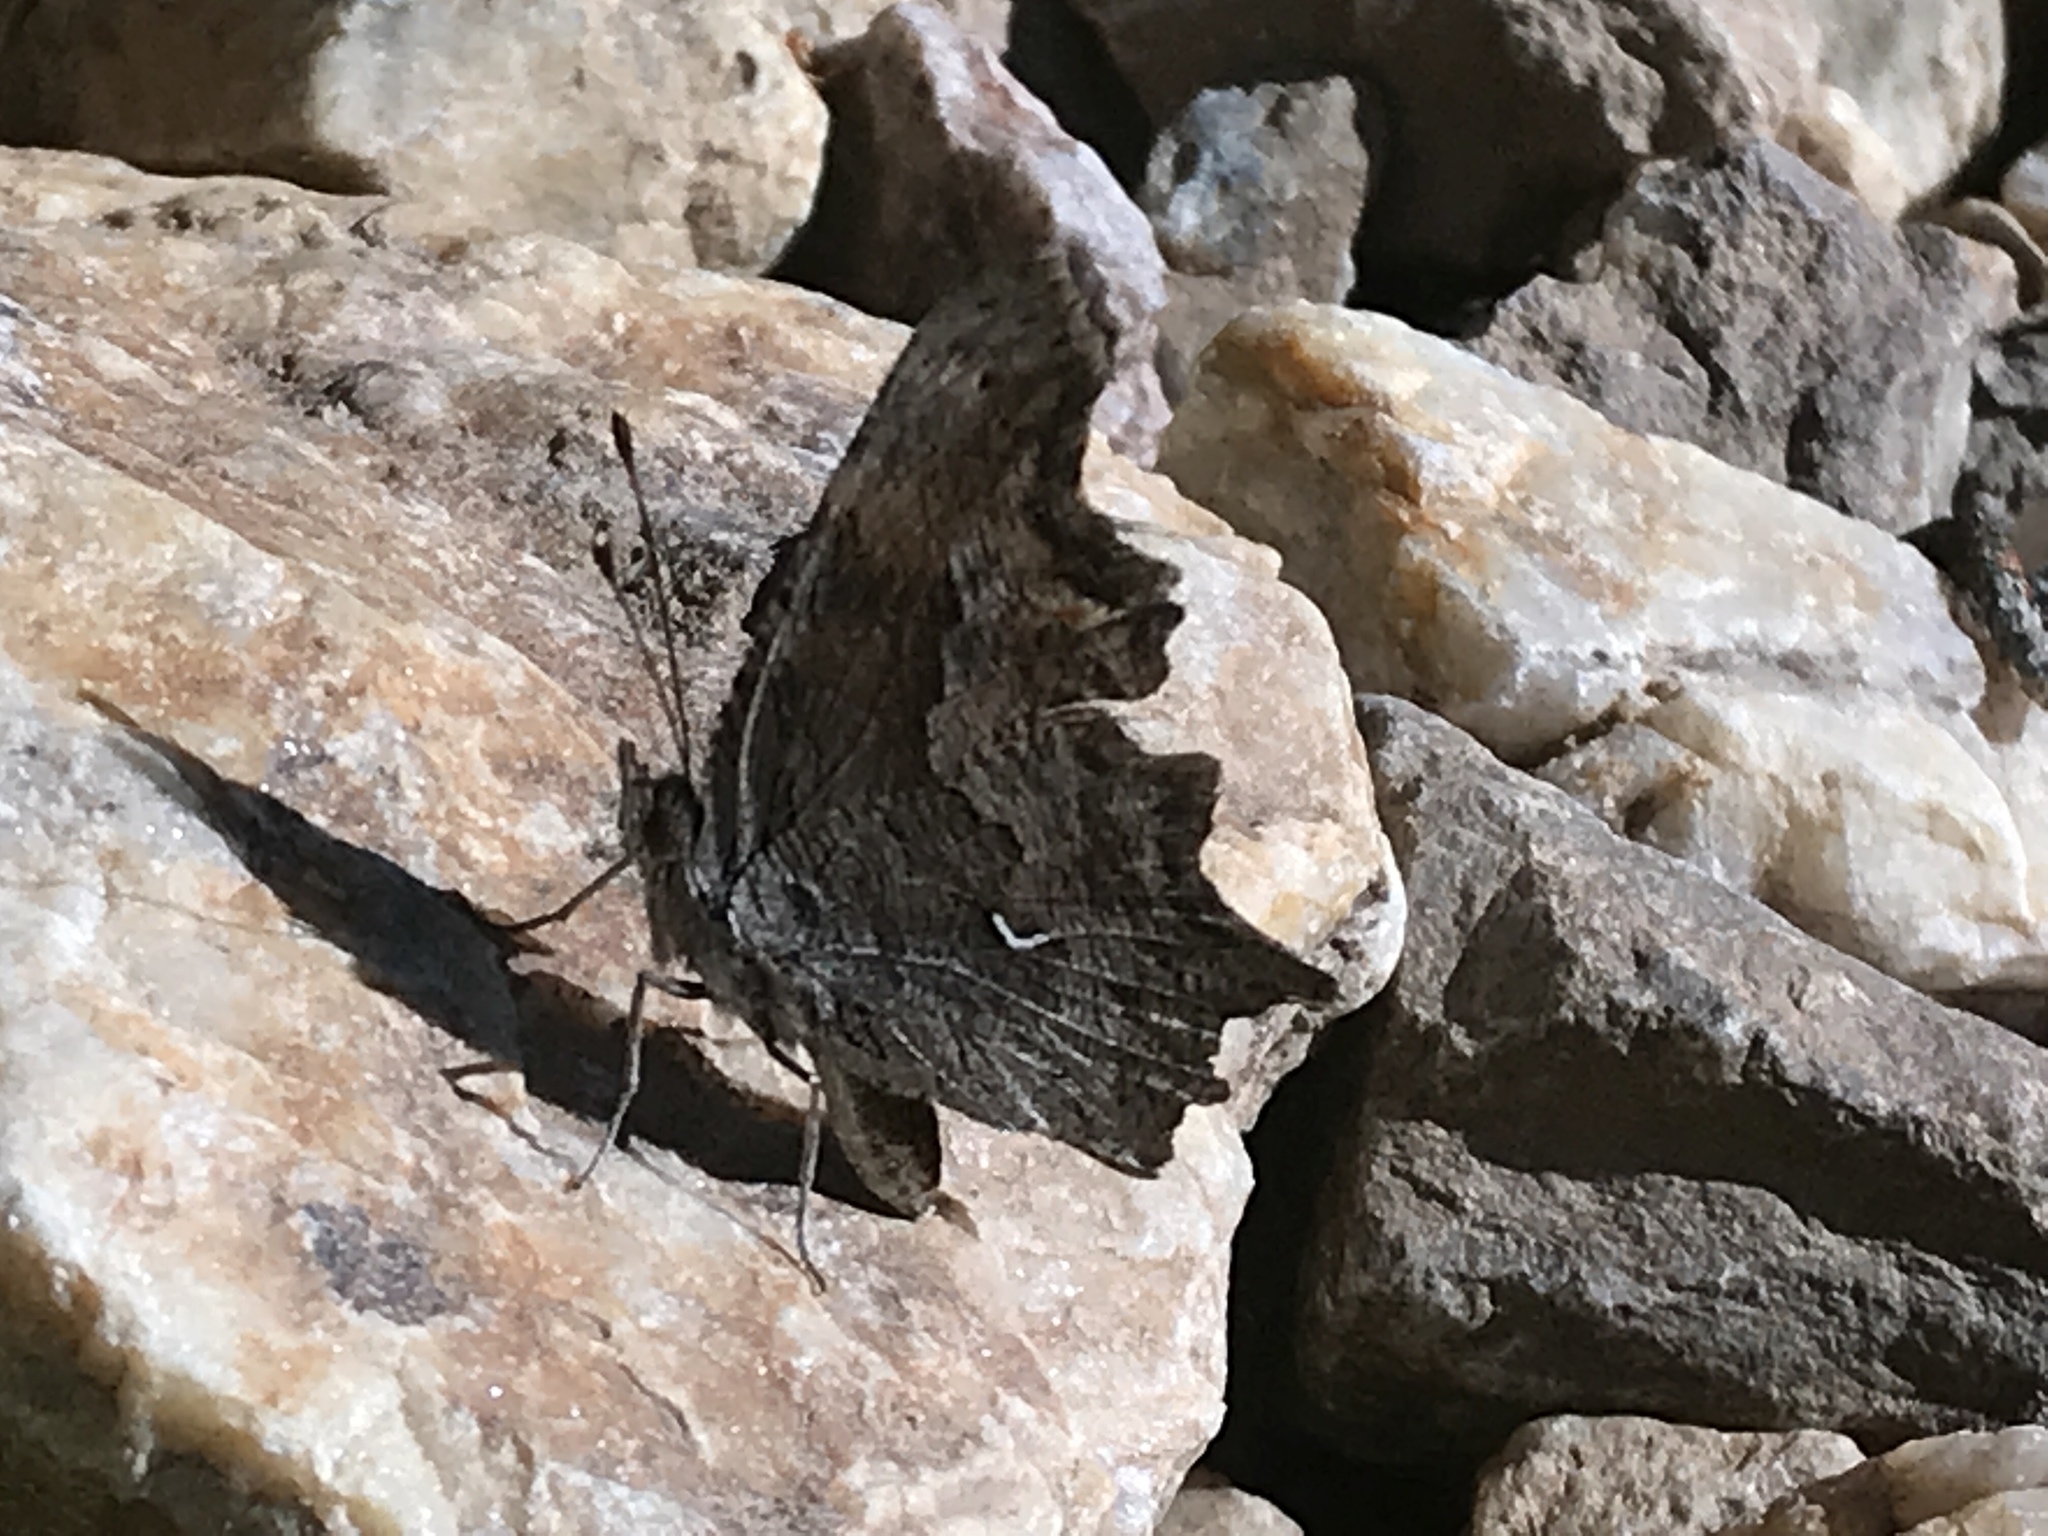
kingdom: Animalia
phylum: Arthropoda
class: Insecta
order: Lepidoptera
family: Nymphalidae
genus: Polygonia
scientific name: Polygonia gracilis
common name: Hoary comma
